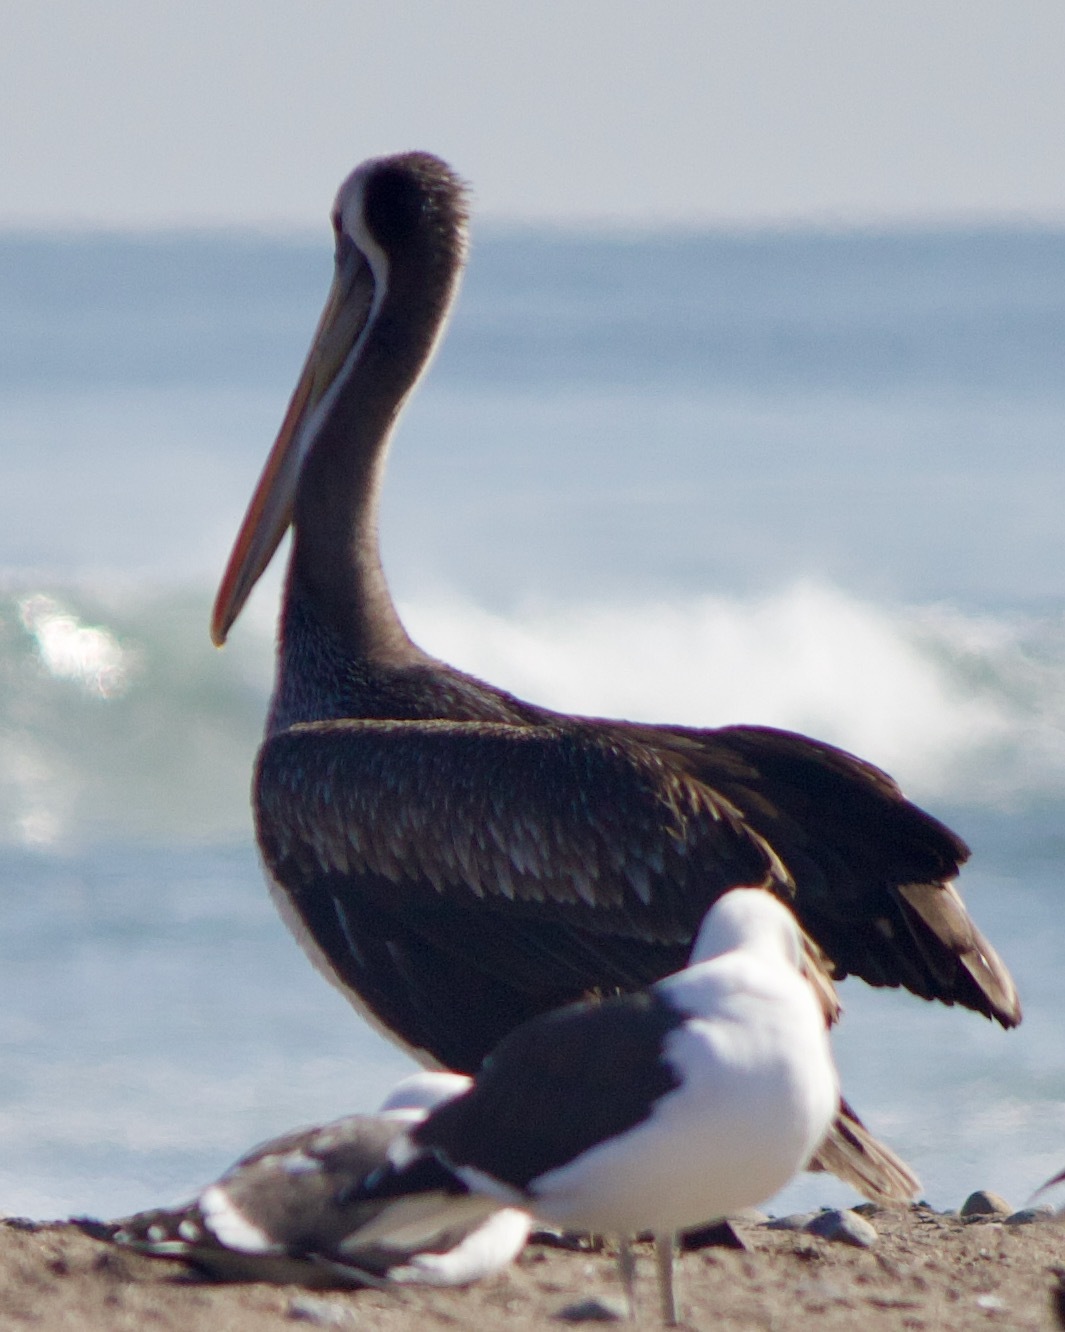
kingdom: Animalia
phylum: Chordata
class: Aves
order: Pelecaniformes
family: Pelecanidae
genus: Pelecanus
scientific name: Pelecanus thagus
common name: Peruvian pelican
